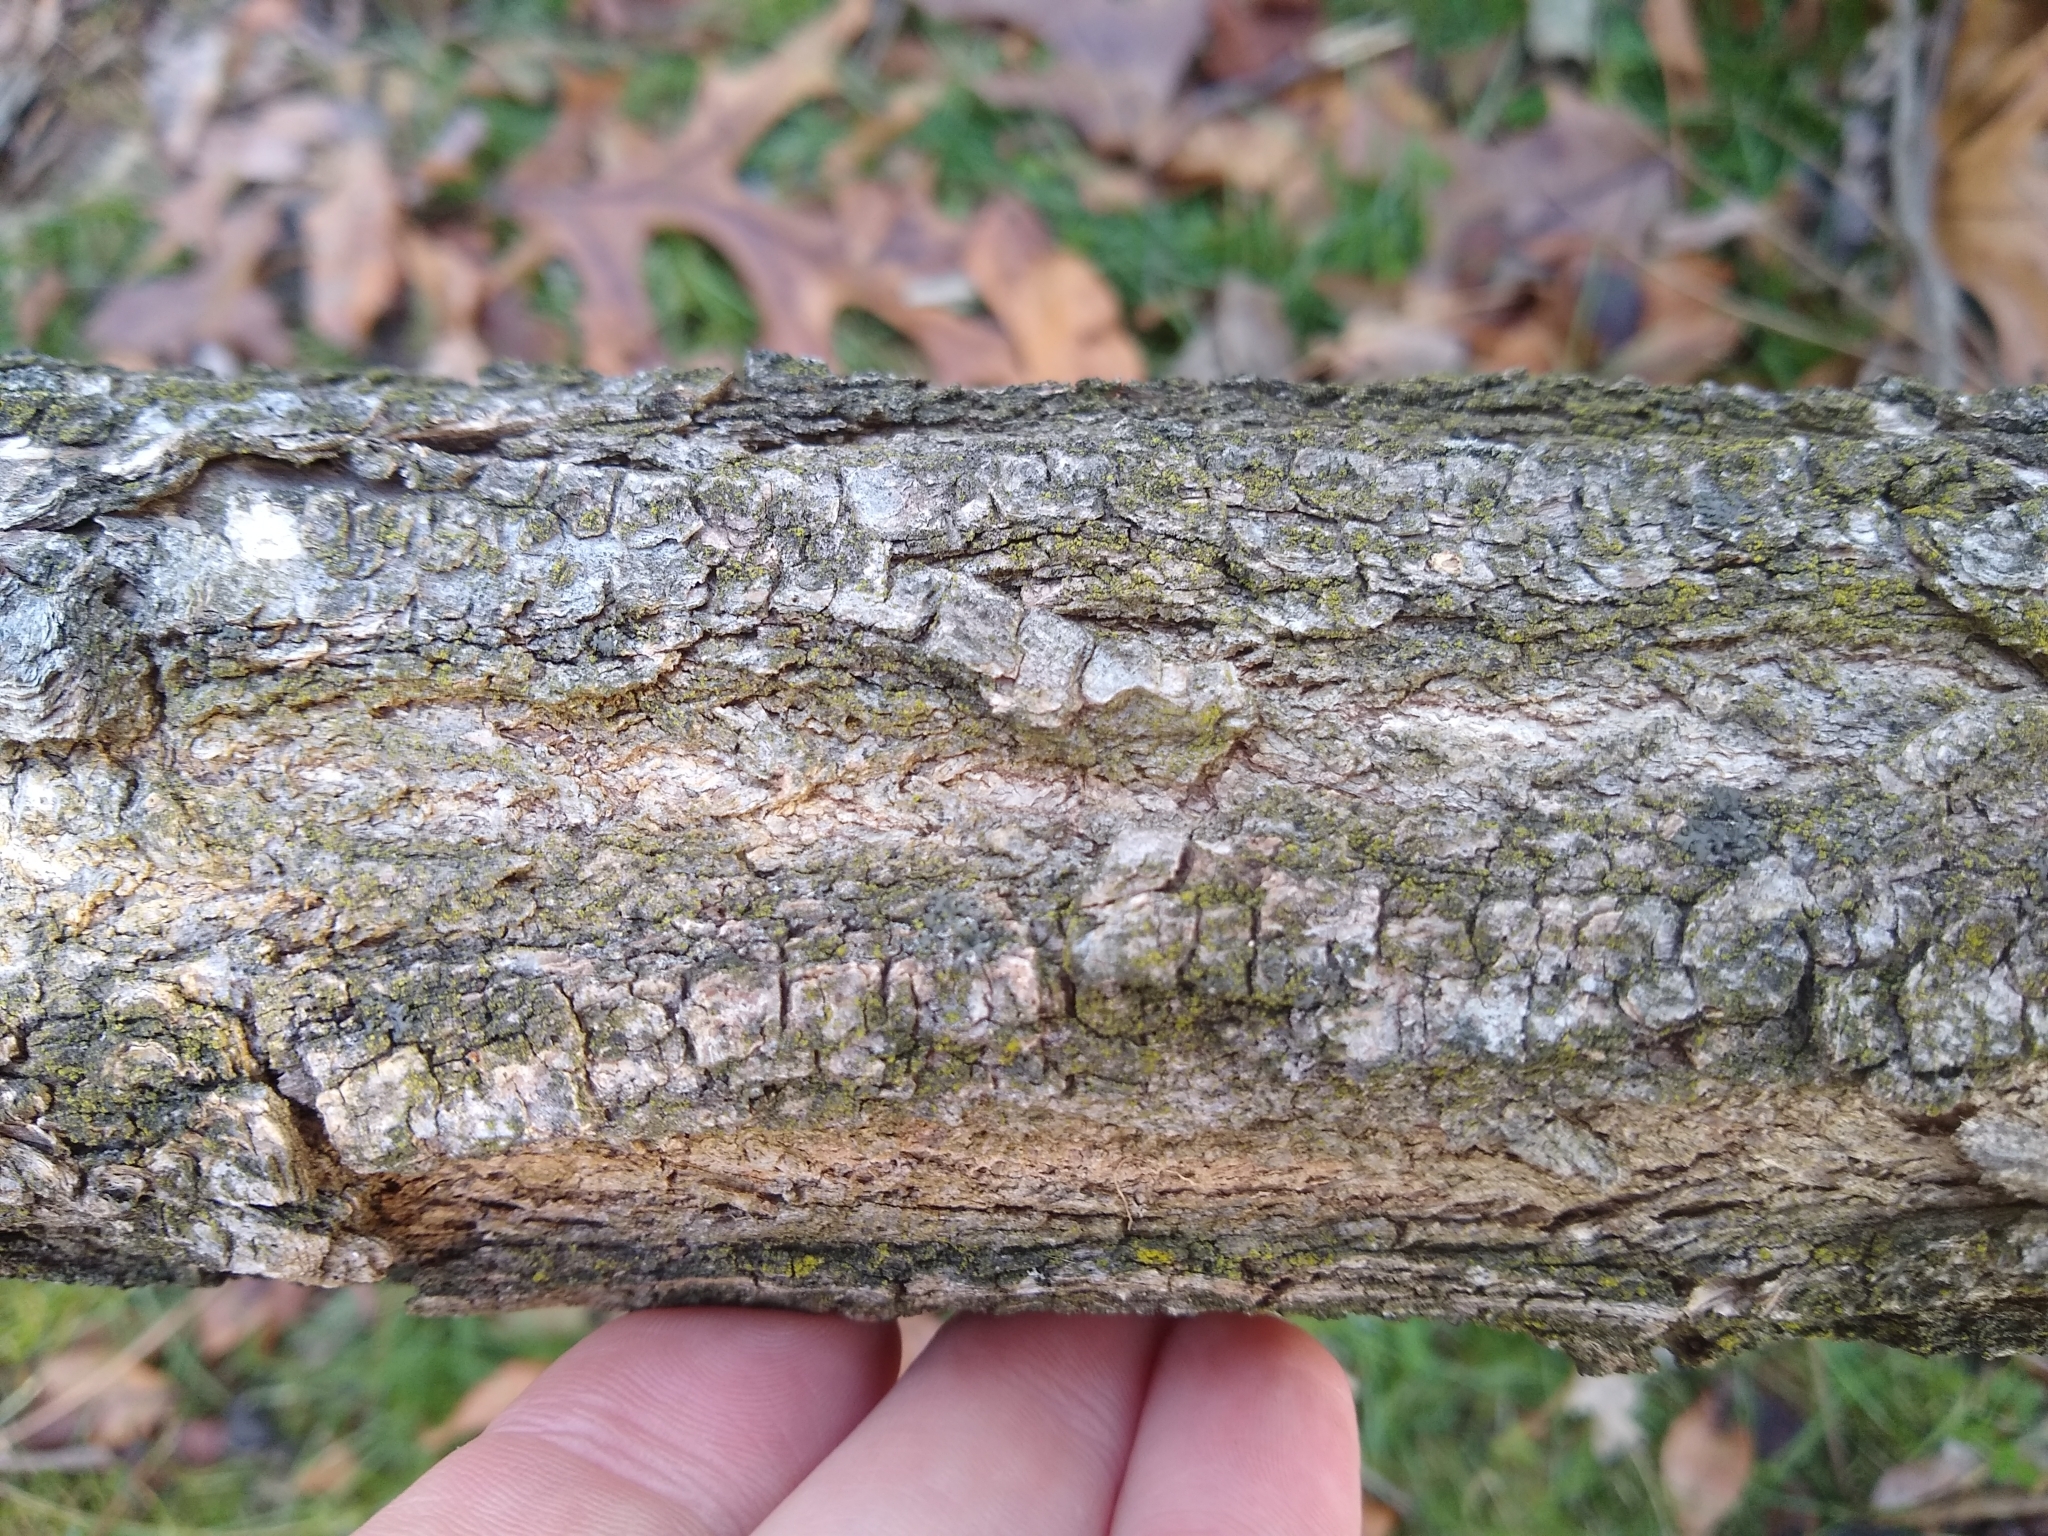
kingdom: Plantae
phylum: Tracheophyta
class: Magnoliopsida
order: Fabales
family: Fabaceae
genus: Robinia
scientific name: Robinia pseudoacacia
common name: Black locust
